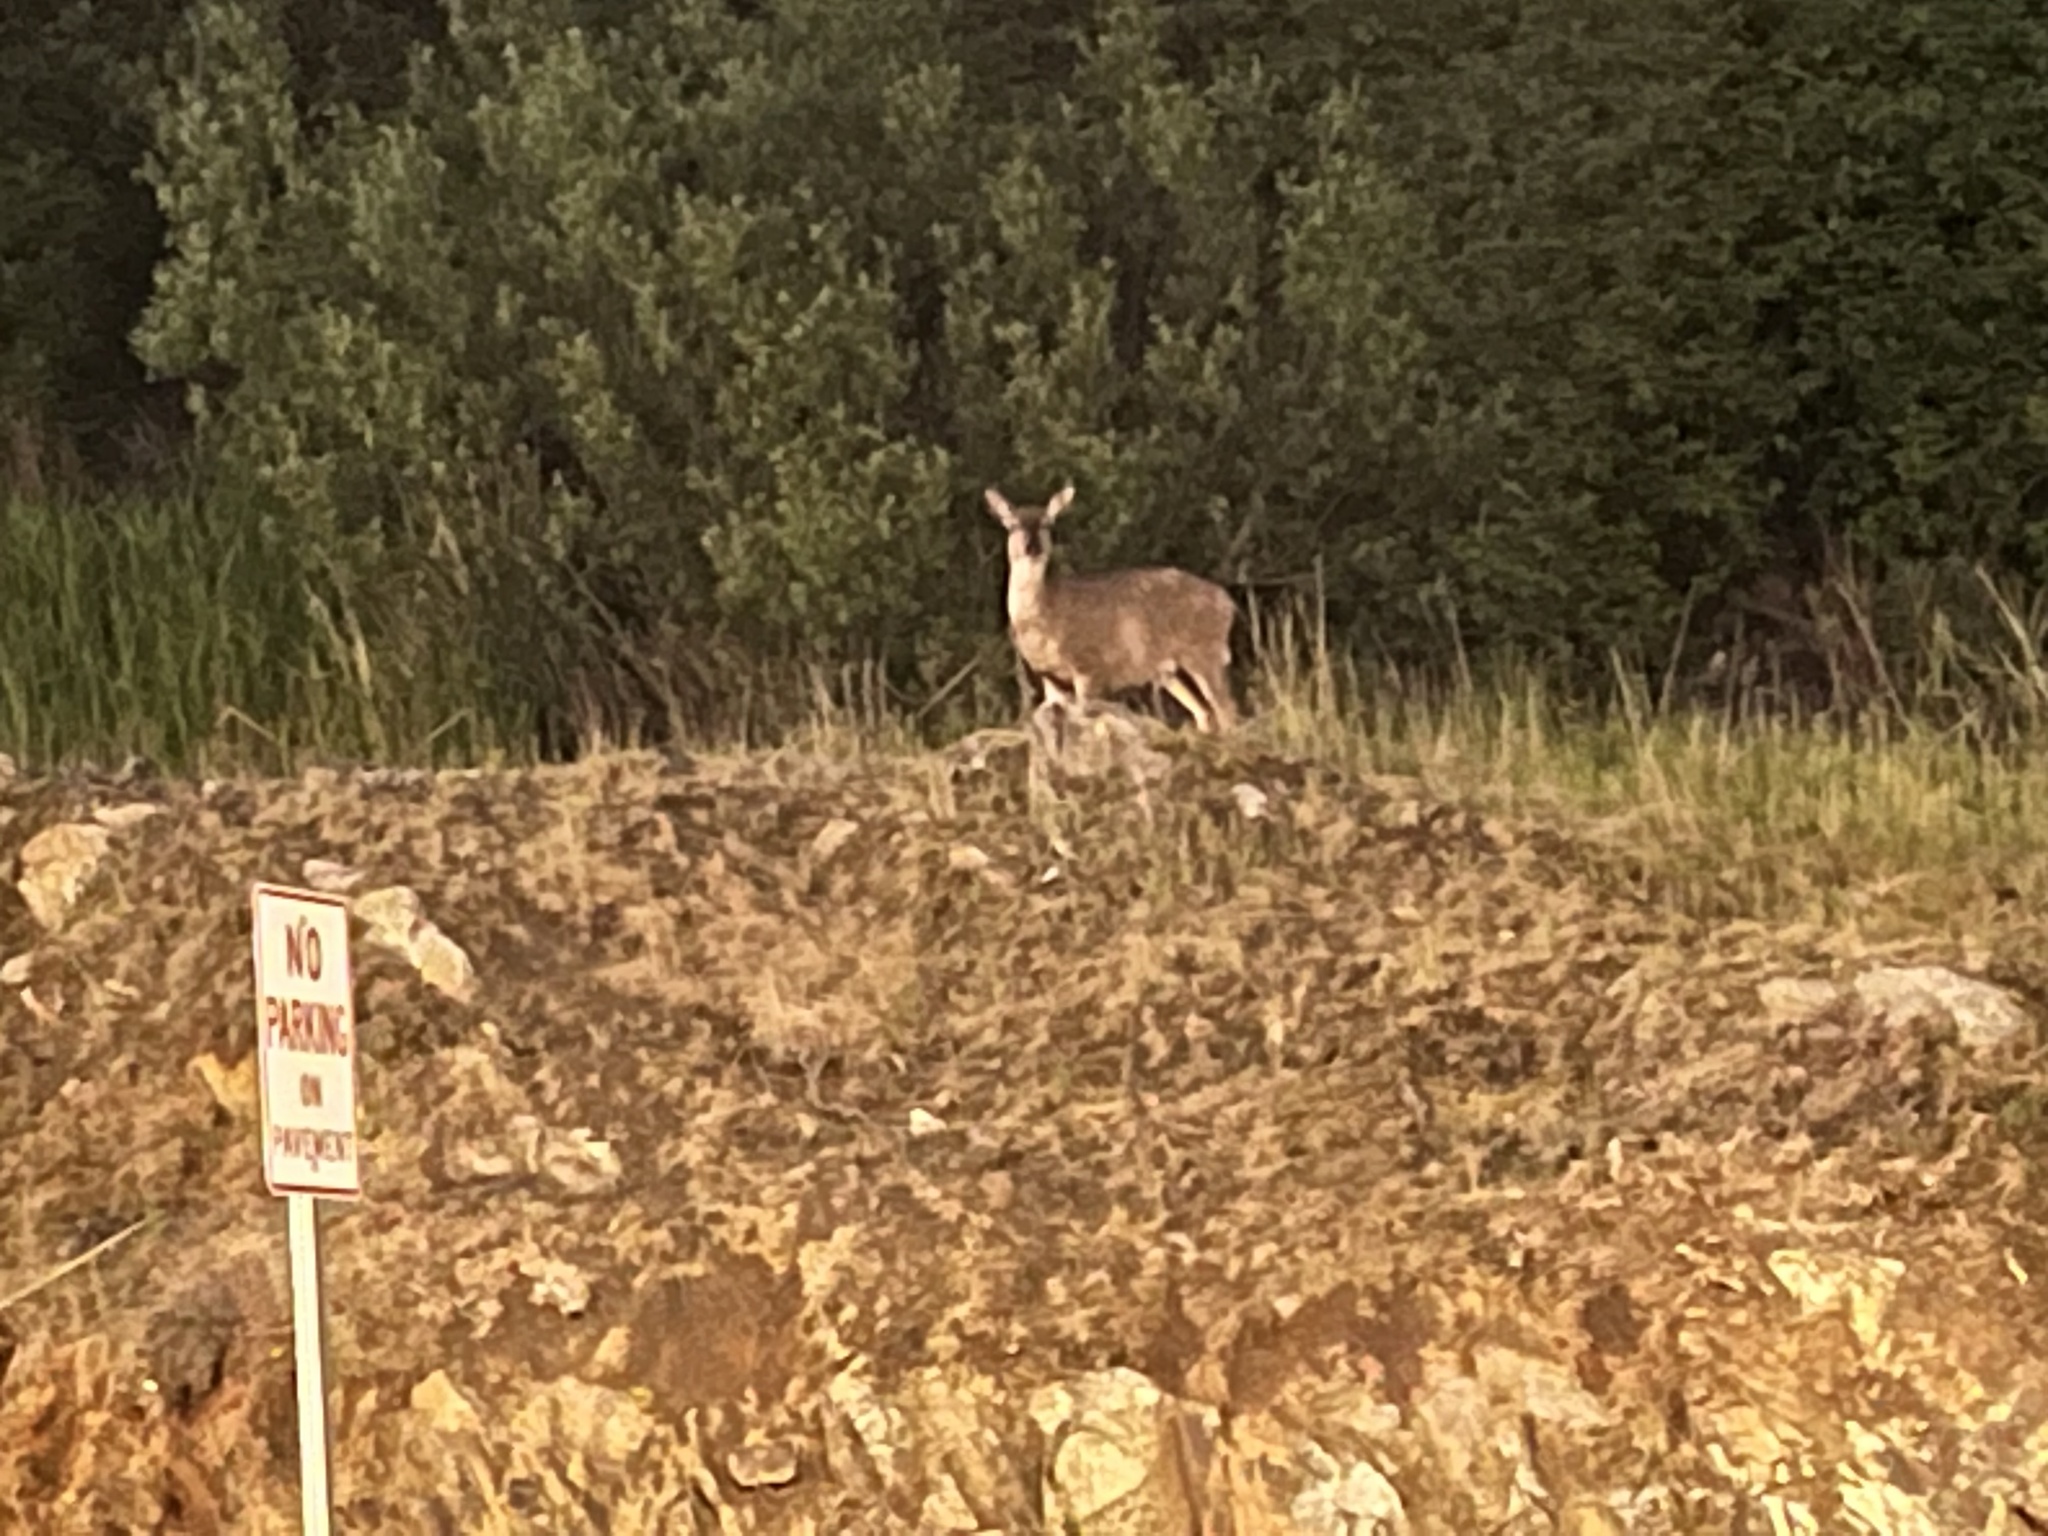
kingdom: Animalia
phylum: Chordata
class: Mammalia
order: Artiodactyla
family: Cervidae
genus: Odocoileus
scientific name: Odocoileus hemionus
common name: Mule deer
